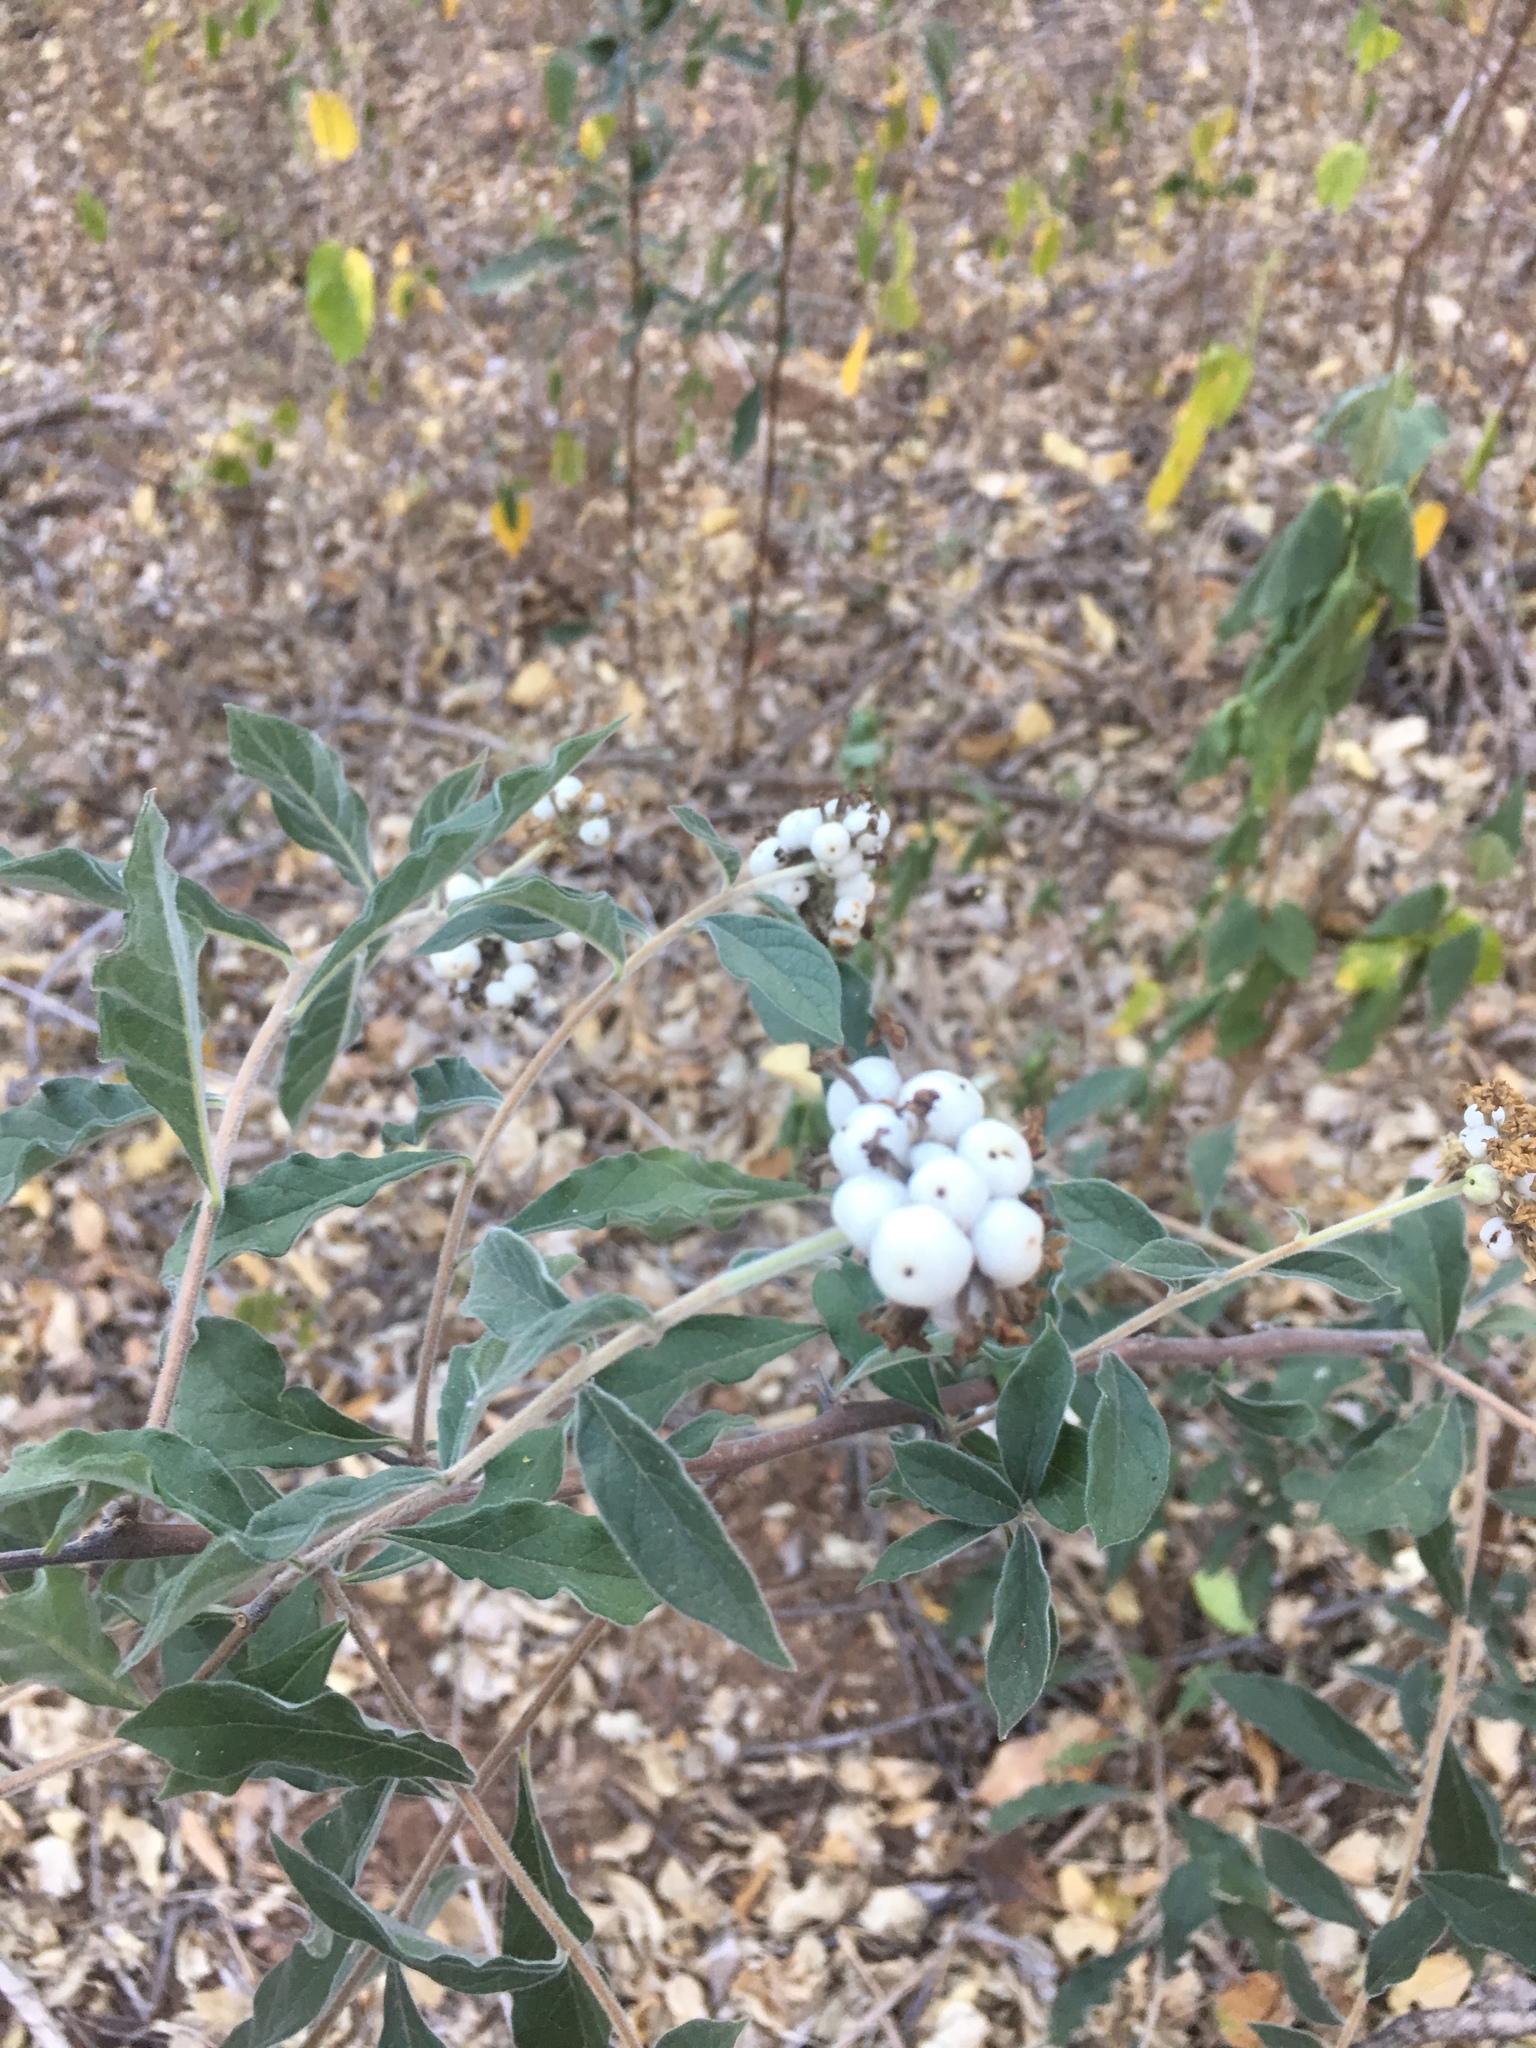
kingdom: Plantae
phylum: Tracheophyta
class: Magnoliopsida
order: Boraginales
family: Heliotropiaceae
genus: Tournefortia
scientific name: Tournefortia mutabilis
